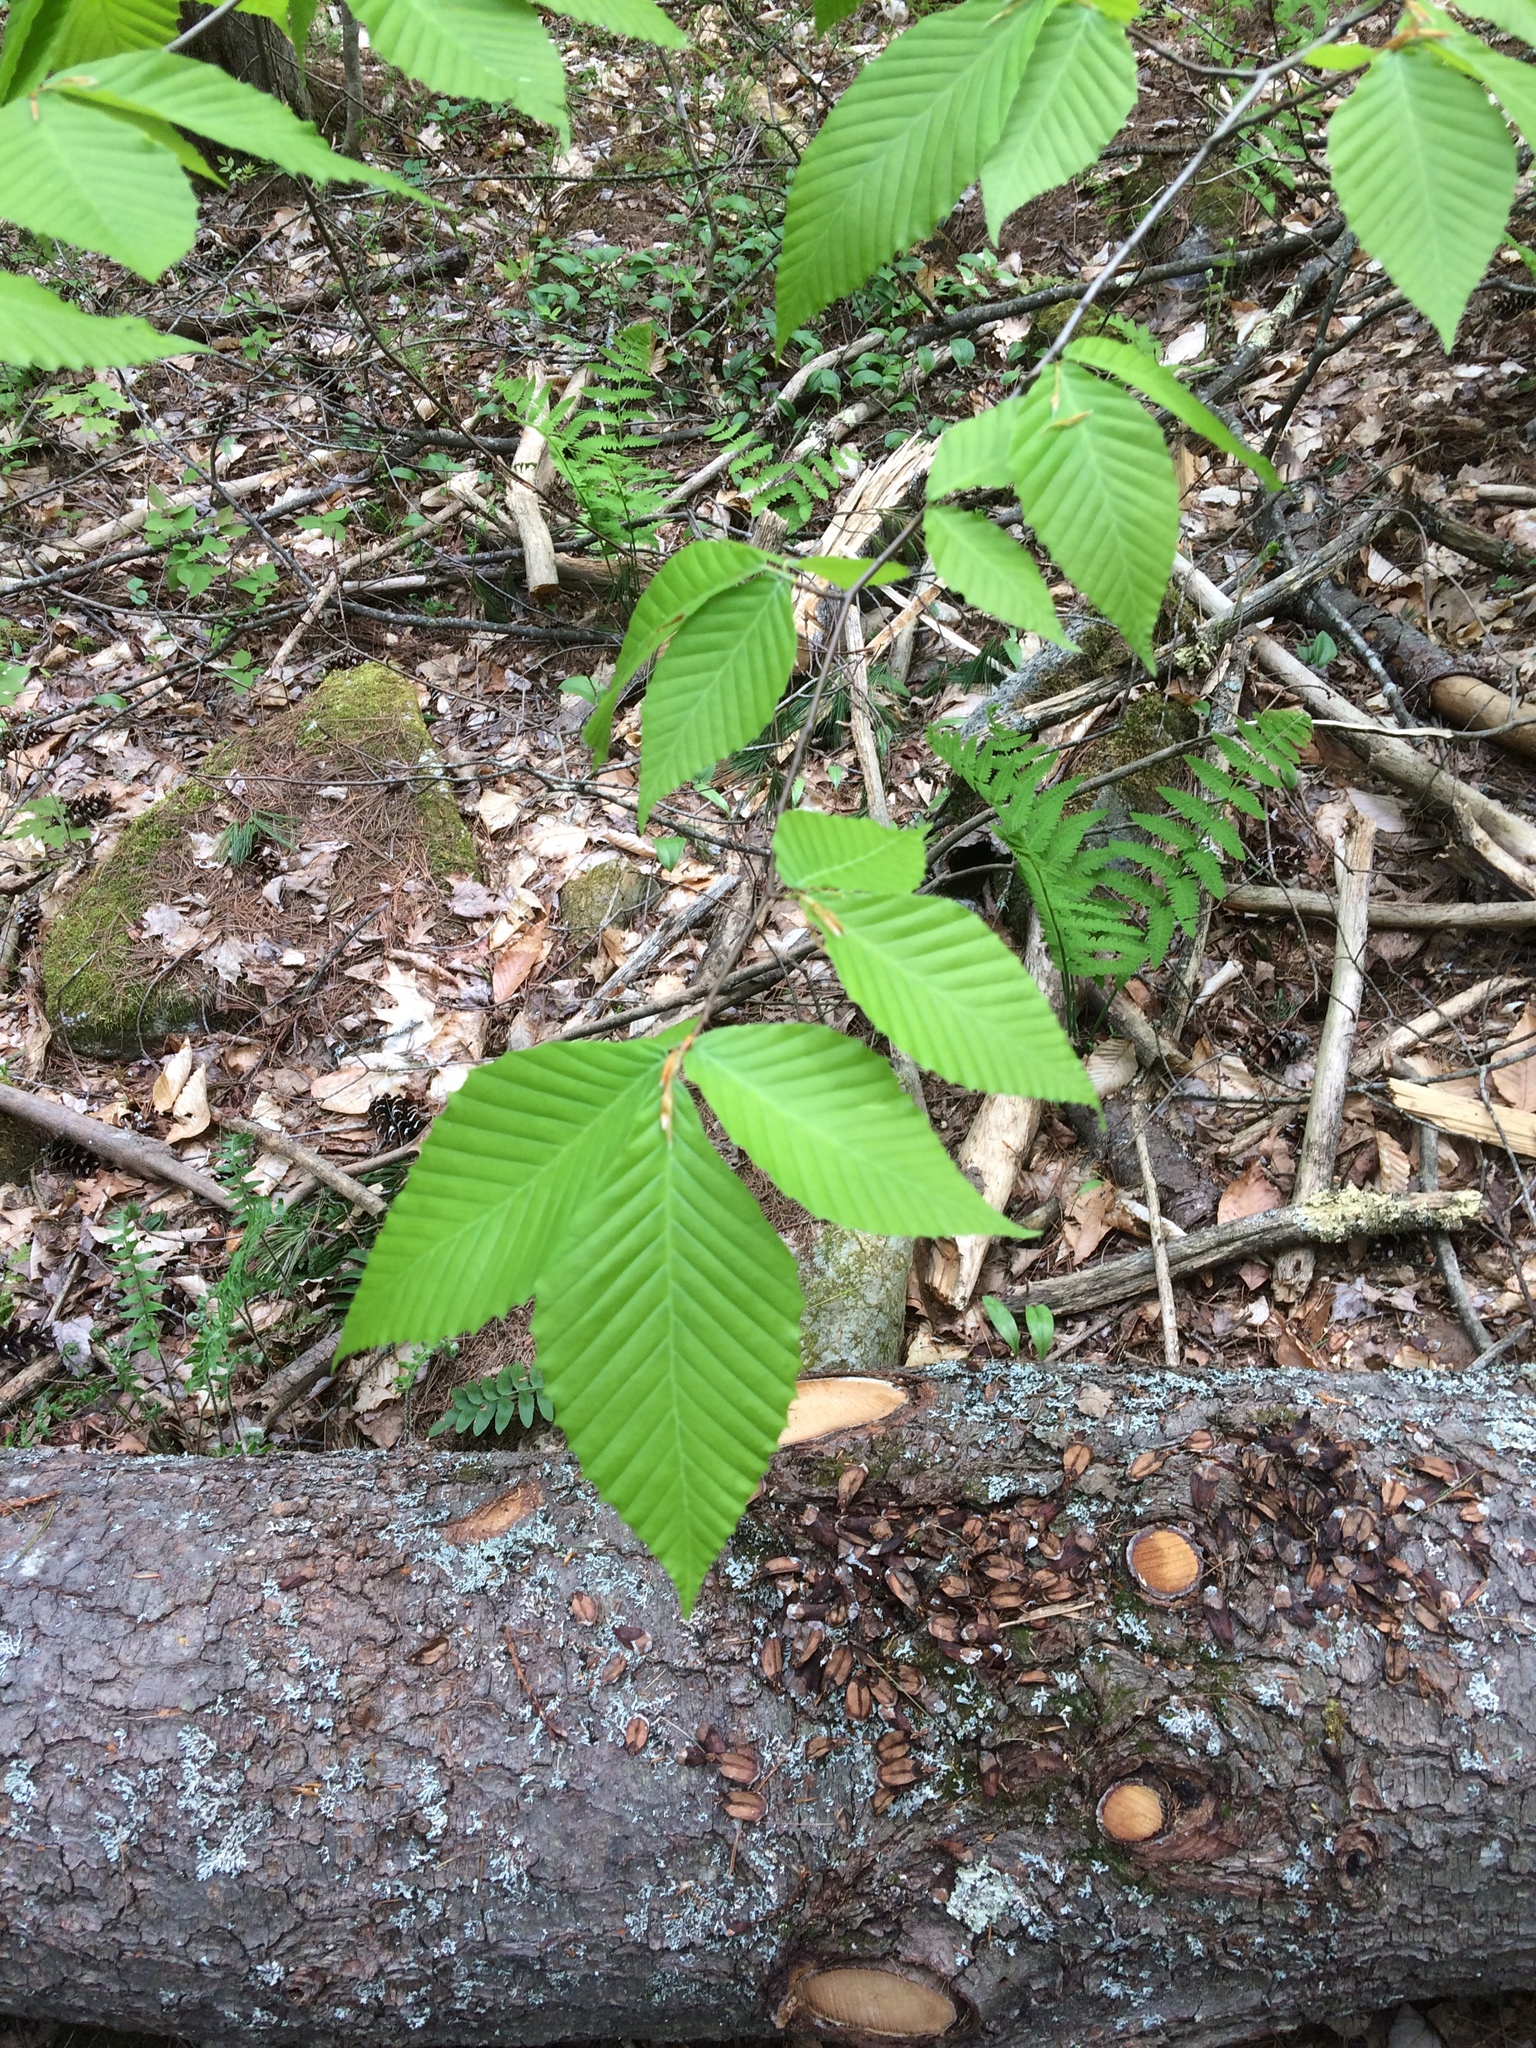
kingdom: Plantae
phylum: Tracheophyta
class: Magnoliopsida
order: Fagales
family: Fagaceae
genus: Fagus
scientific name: Fagus grandifolia
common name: American beech
